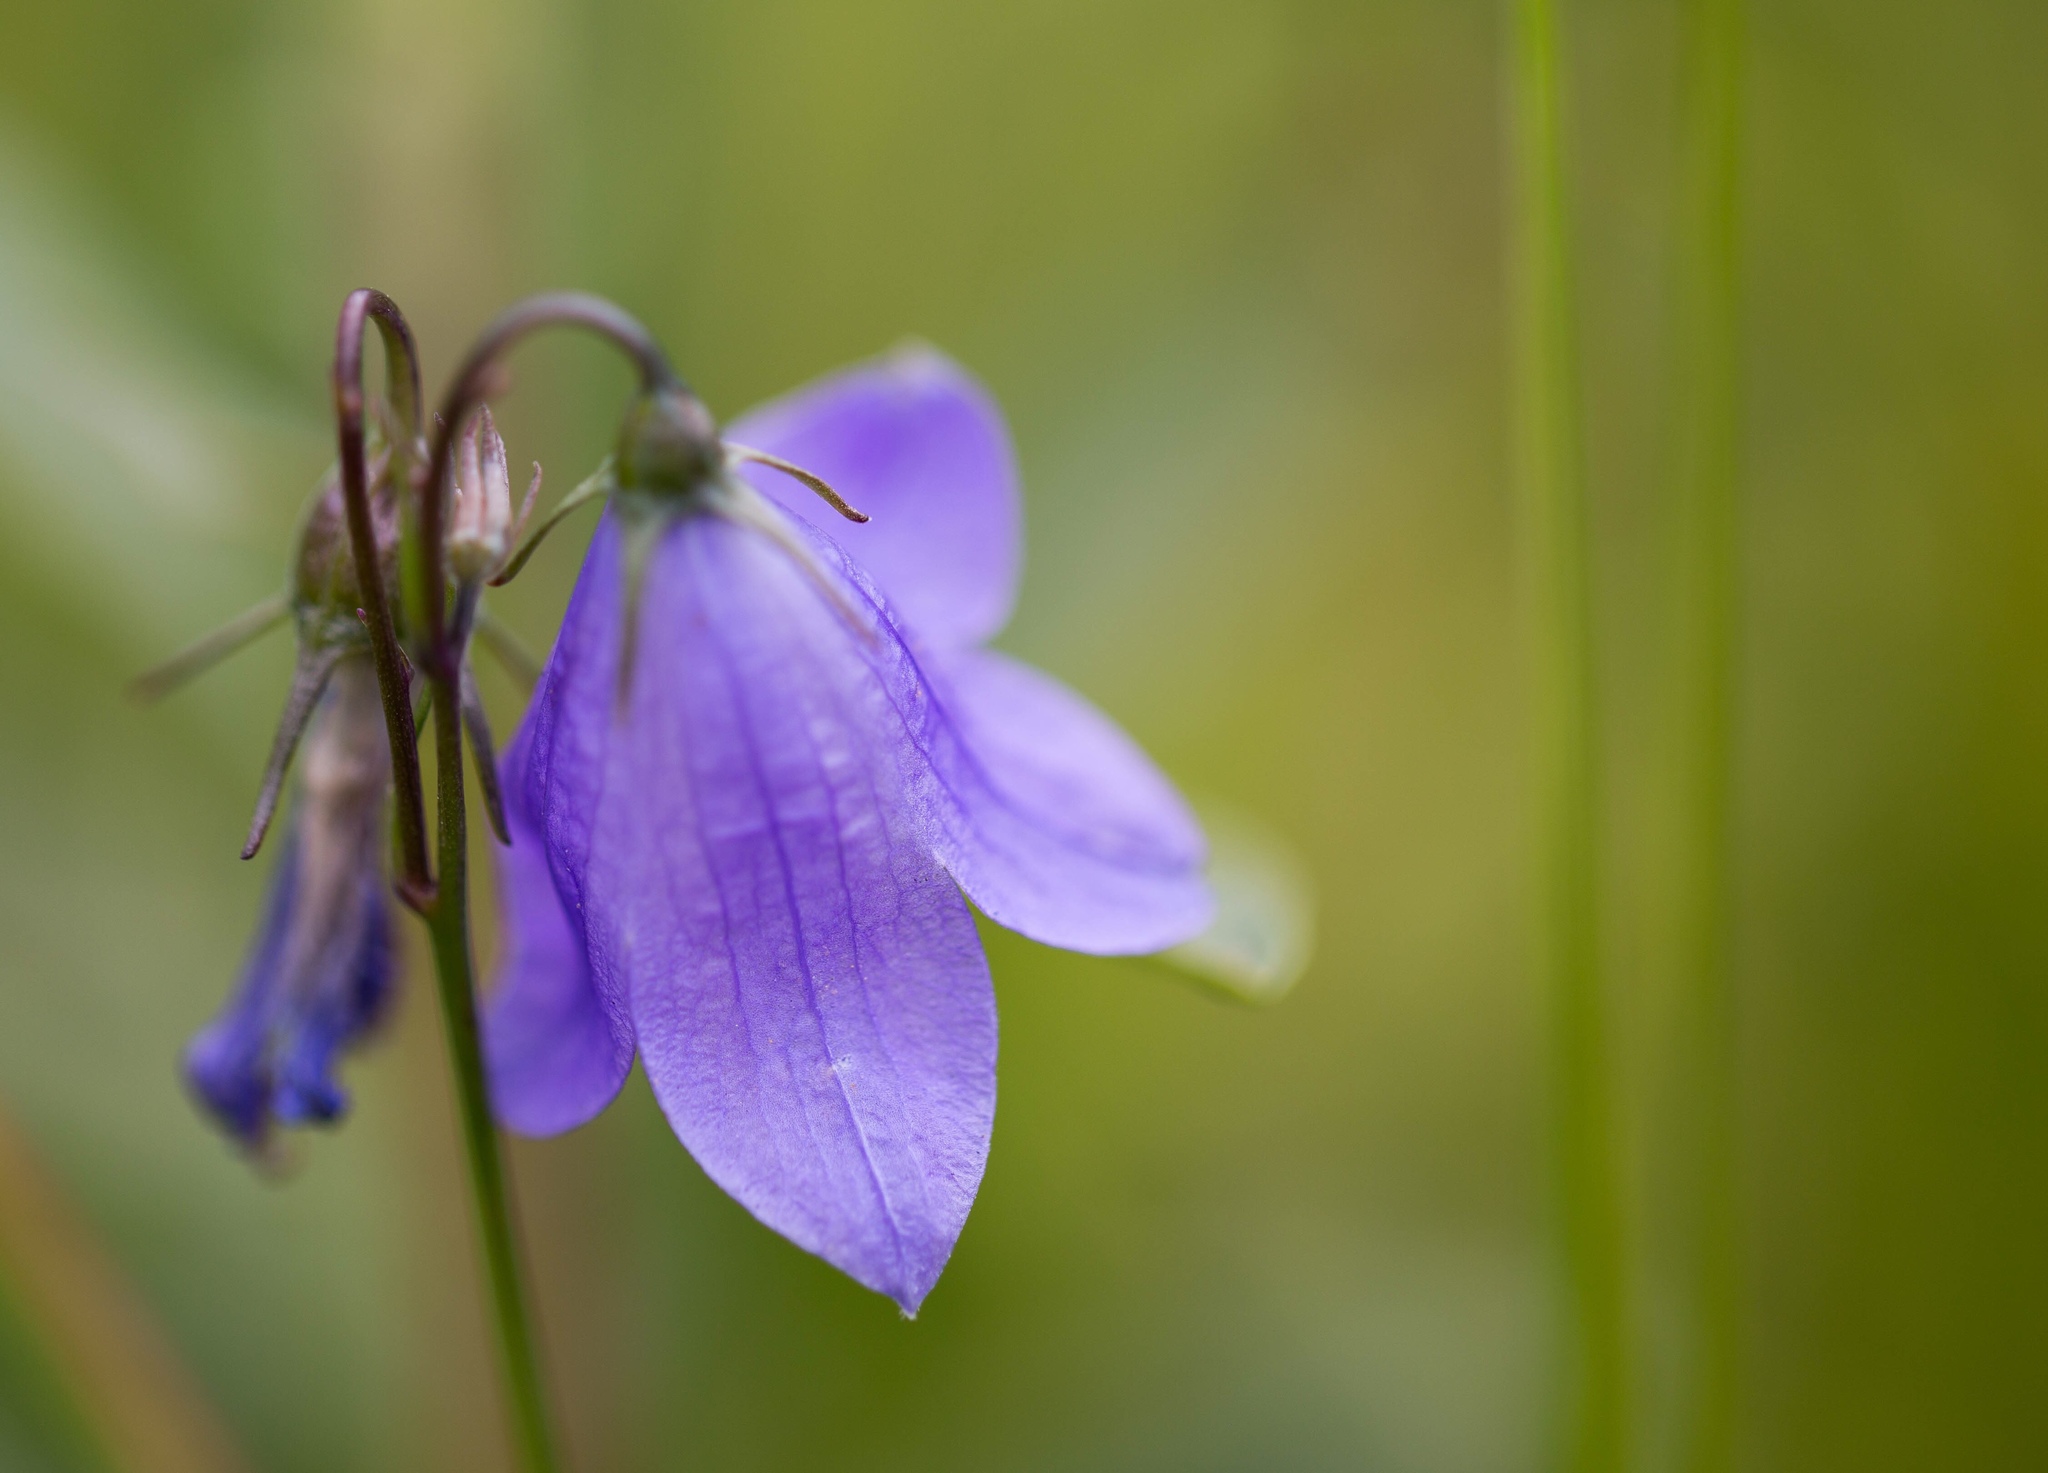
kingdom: Plantae
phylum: Tracheophyta
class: Magnoliopsida
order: Asterales
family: Campanulaceae
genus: Campanula
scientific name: Campanula petiolata
